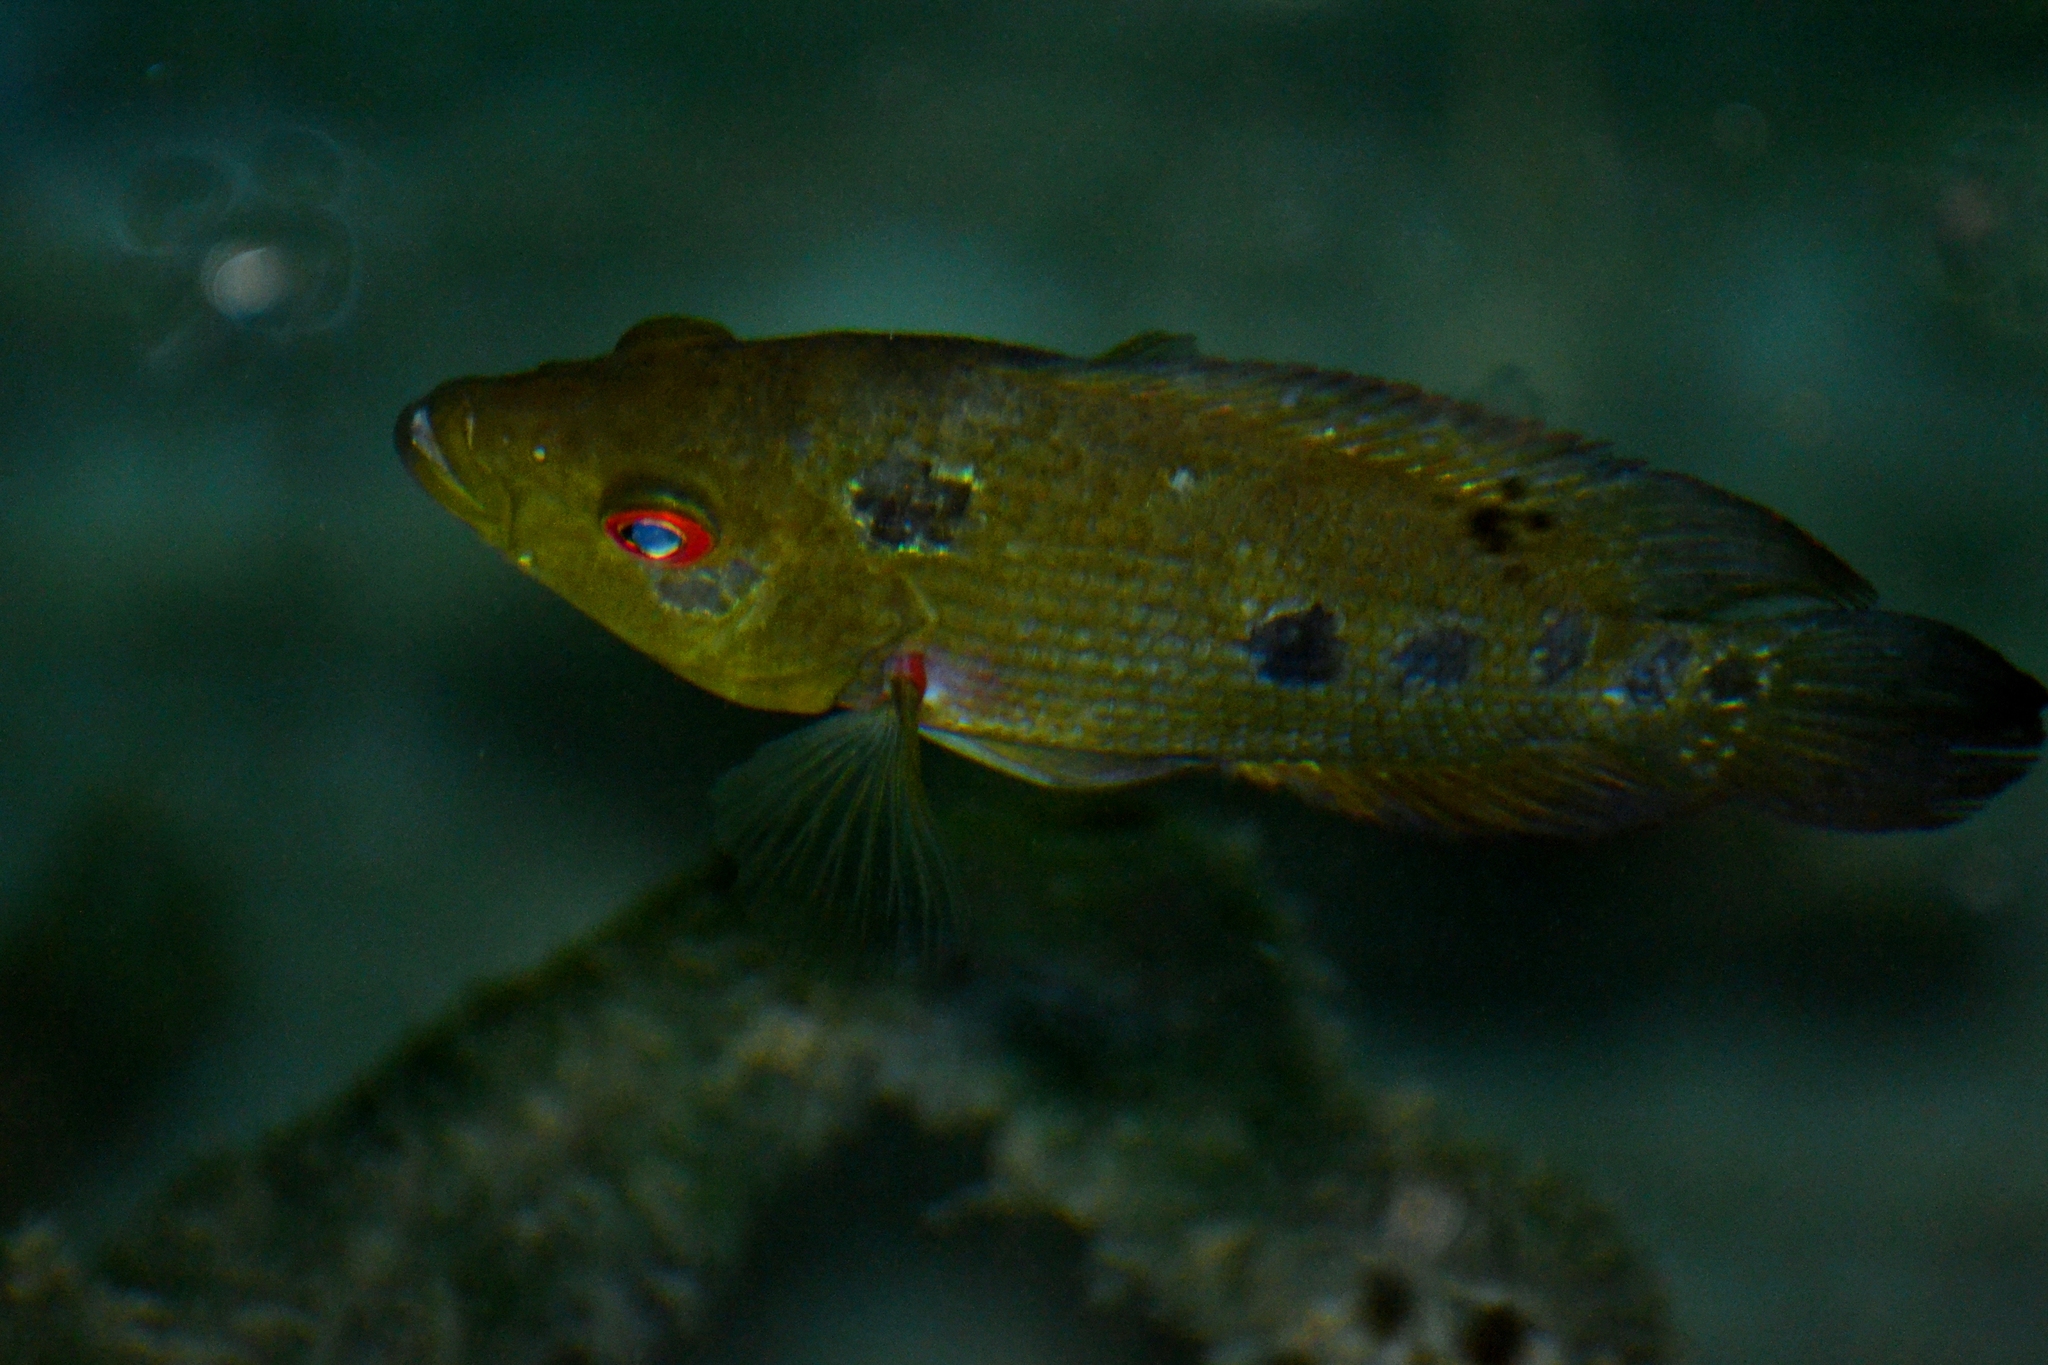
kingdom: Animalia
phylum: Chordata
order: Perciformes
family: Cichlidae
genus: Cichlasoma
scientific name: Cichlasoma trimaculatum
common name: Threespot cichlid
